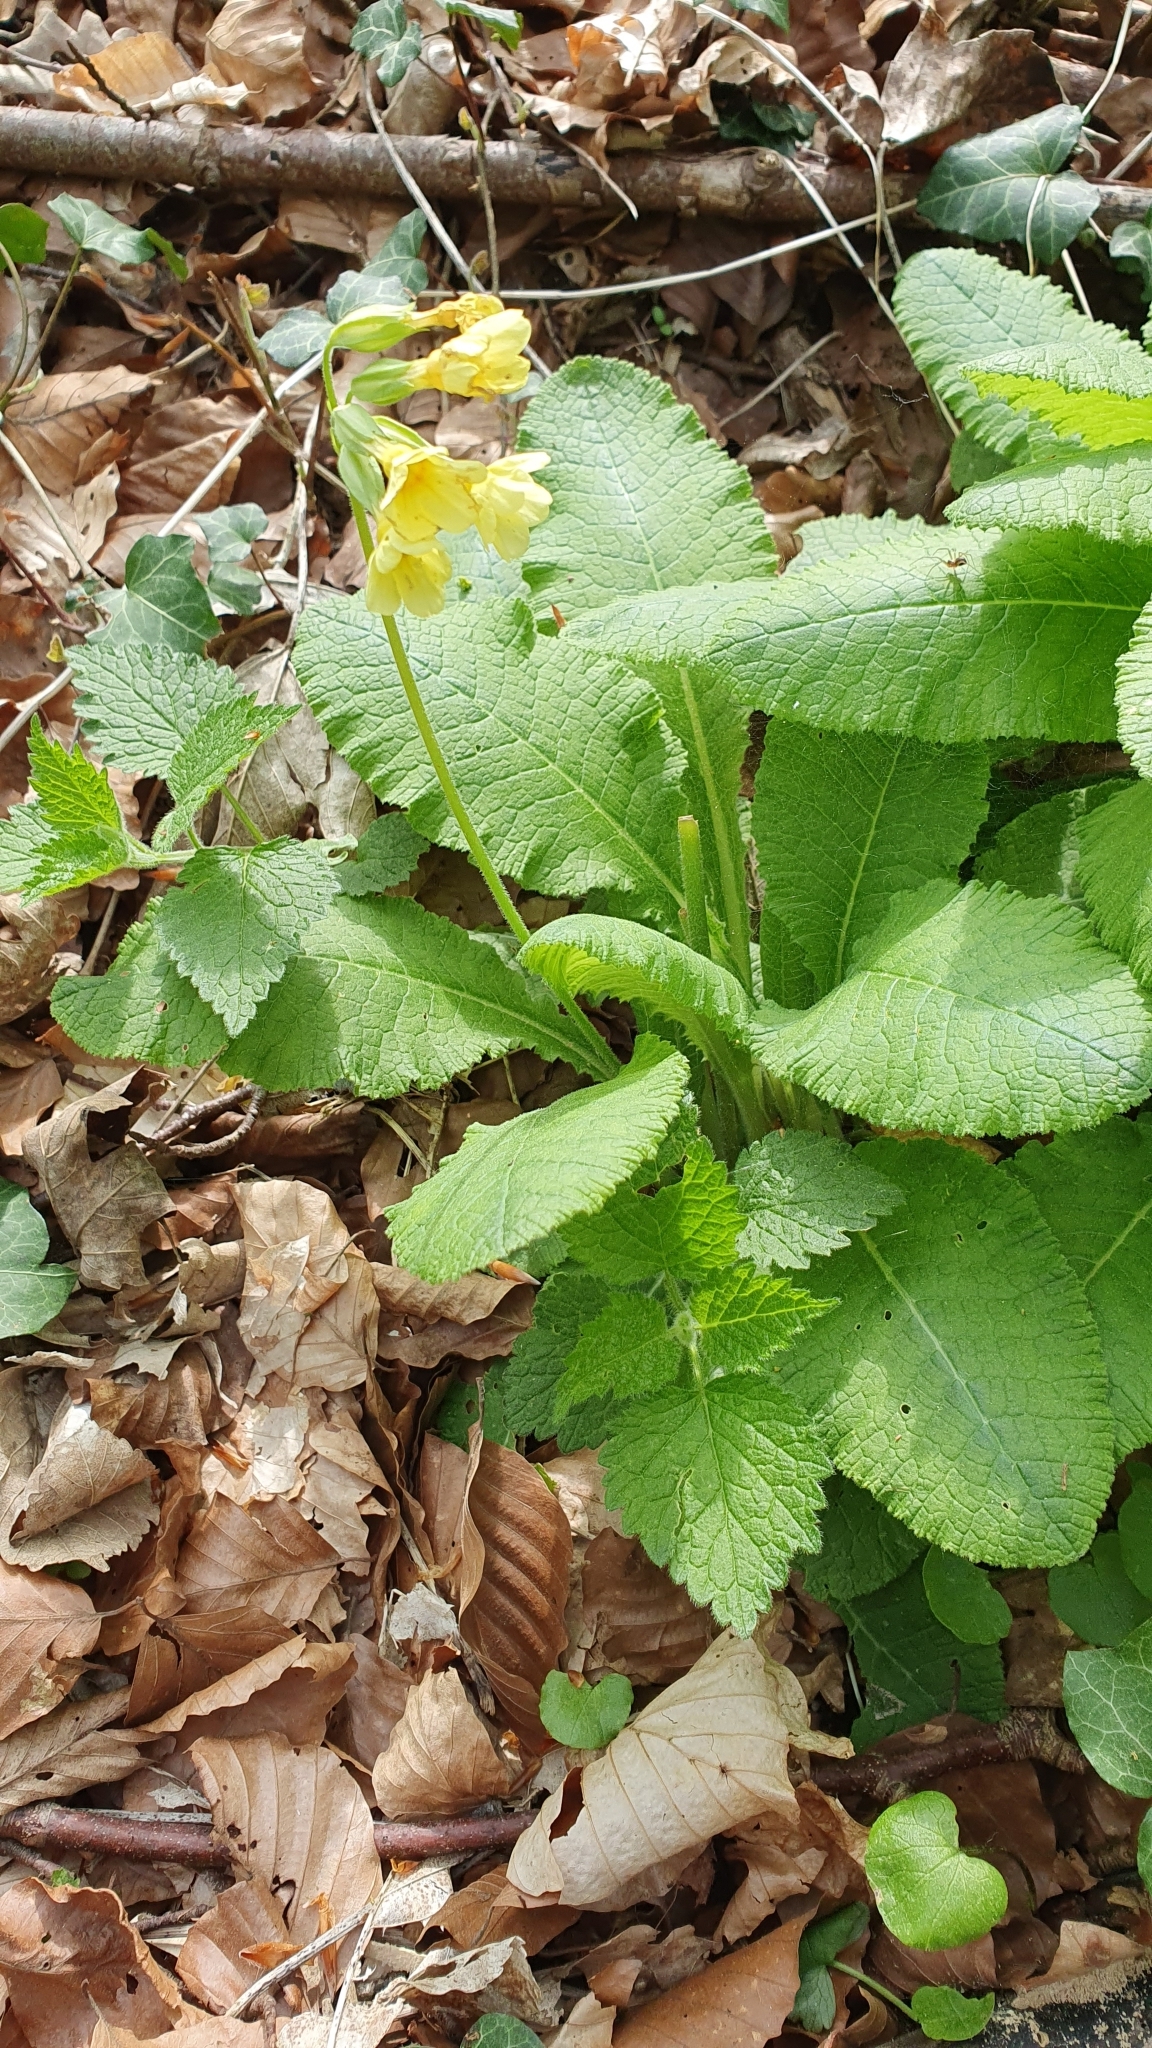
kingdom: Plantae
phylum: Tracheophyta
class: Magnoliopsida
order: Ericales
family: Primulaceae
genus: Primula
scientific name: Primula elatior
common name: Oxlip
